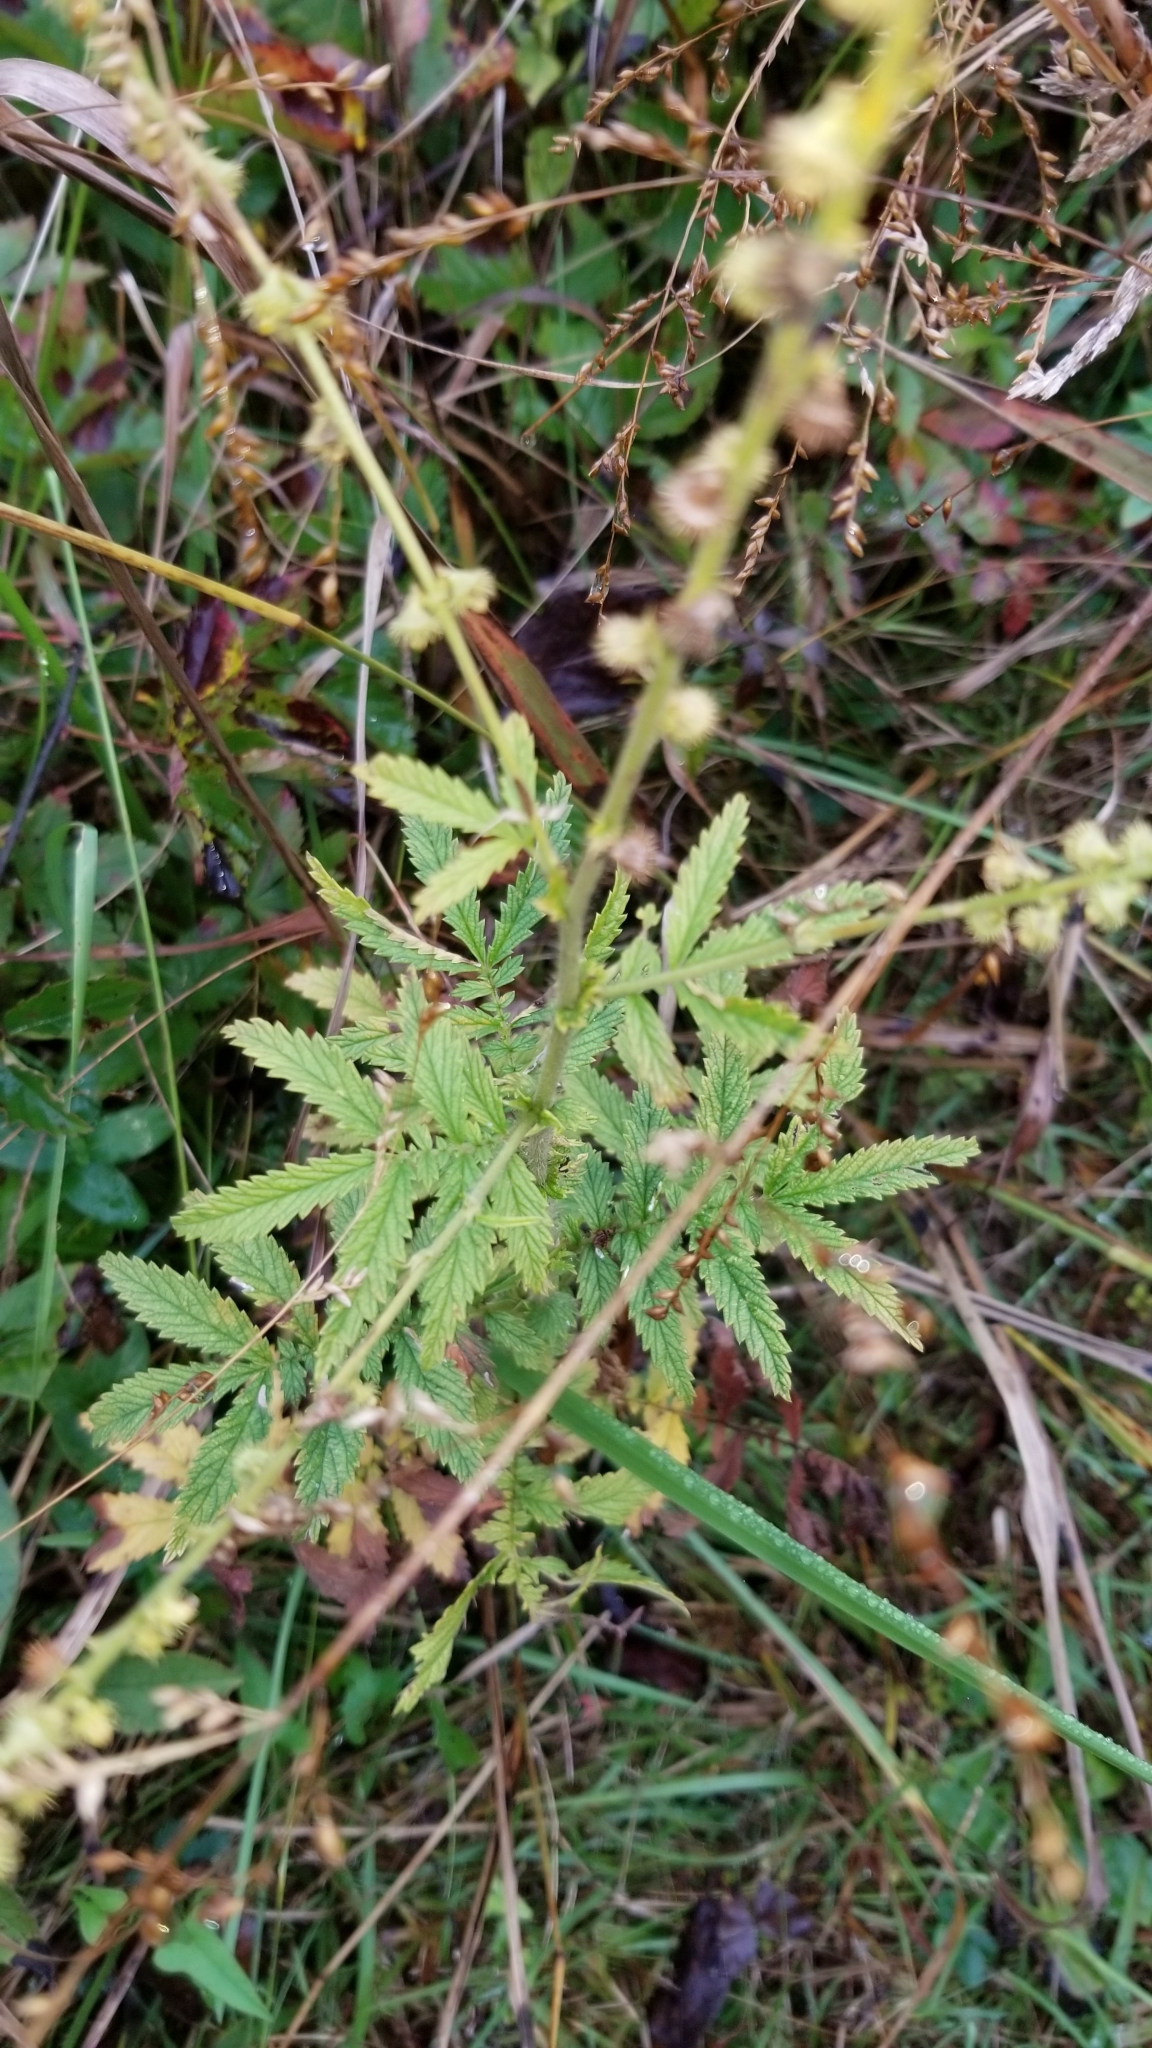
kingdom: Plantae
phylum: Tracheophyta
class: Magnoliopsida
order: Rosales
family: Rosaceae
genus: Agrimonia
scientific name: Agrimonia parviflora
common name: Harvest-lice
